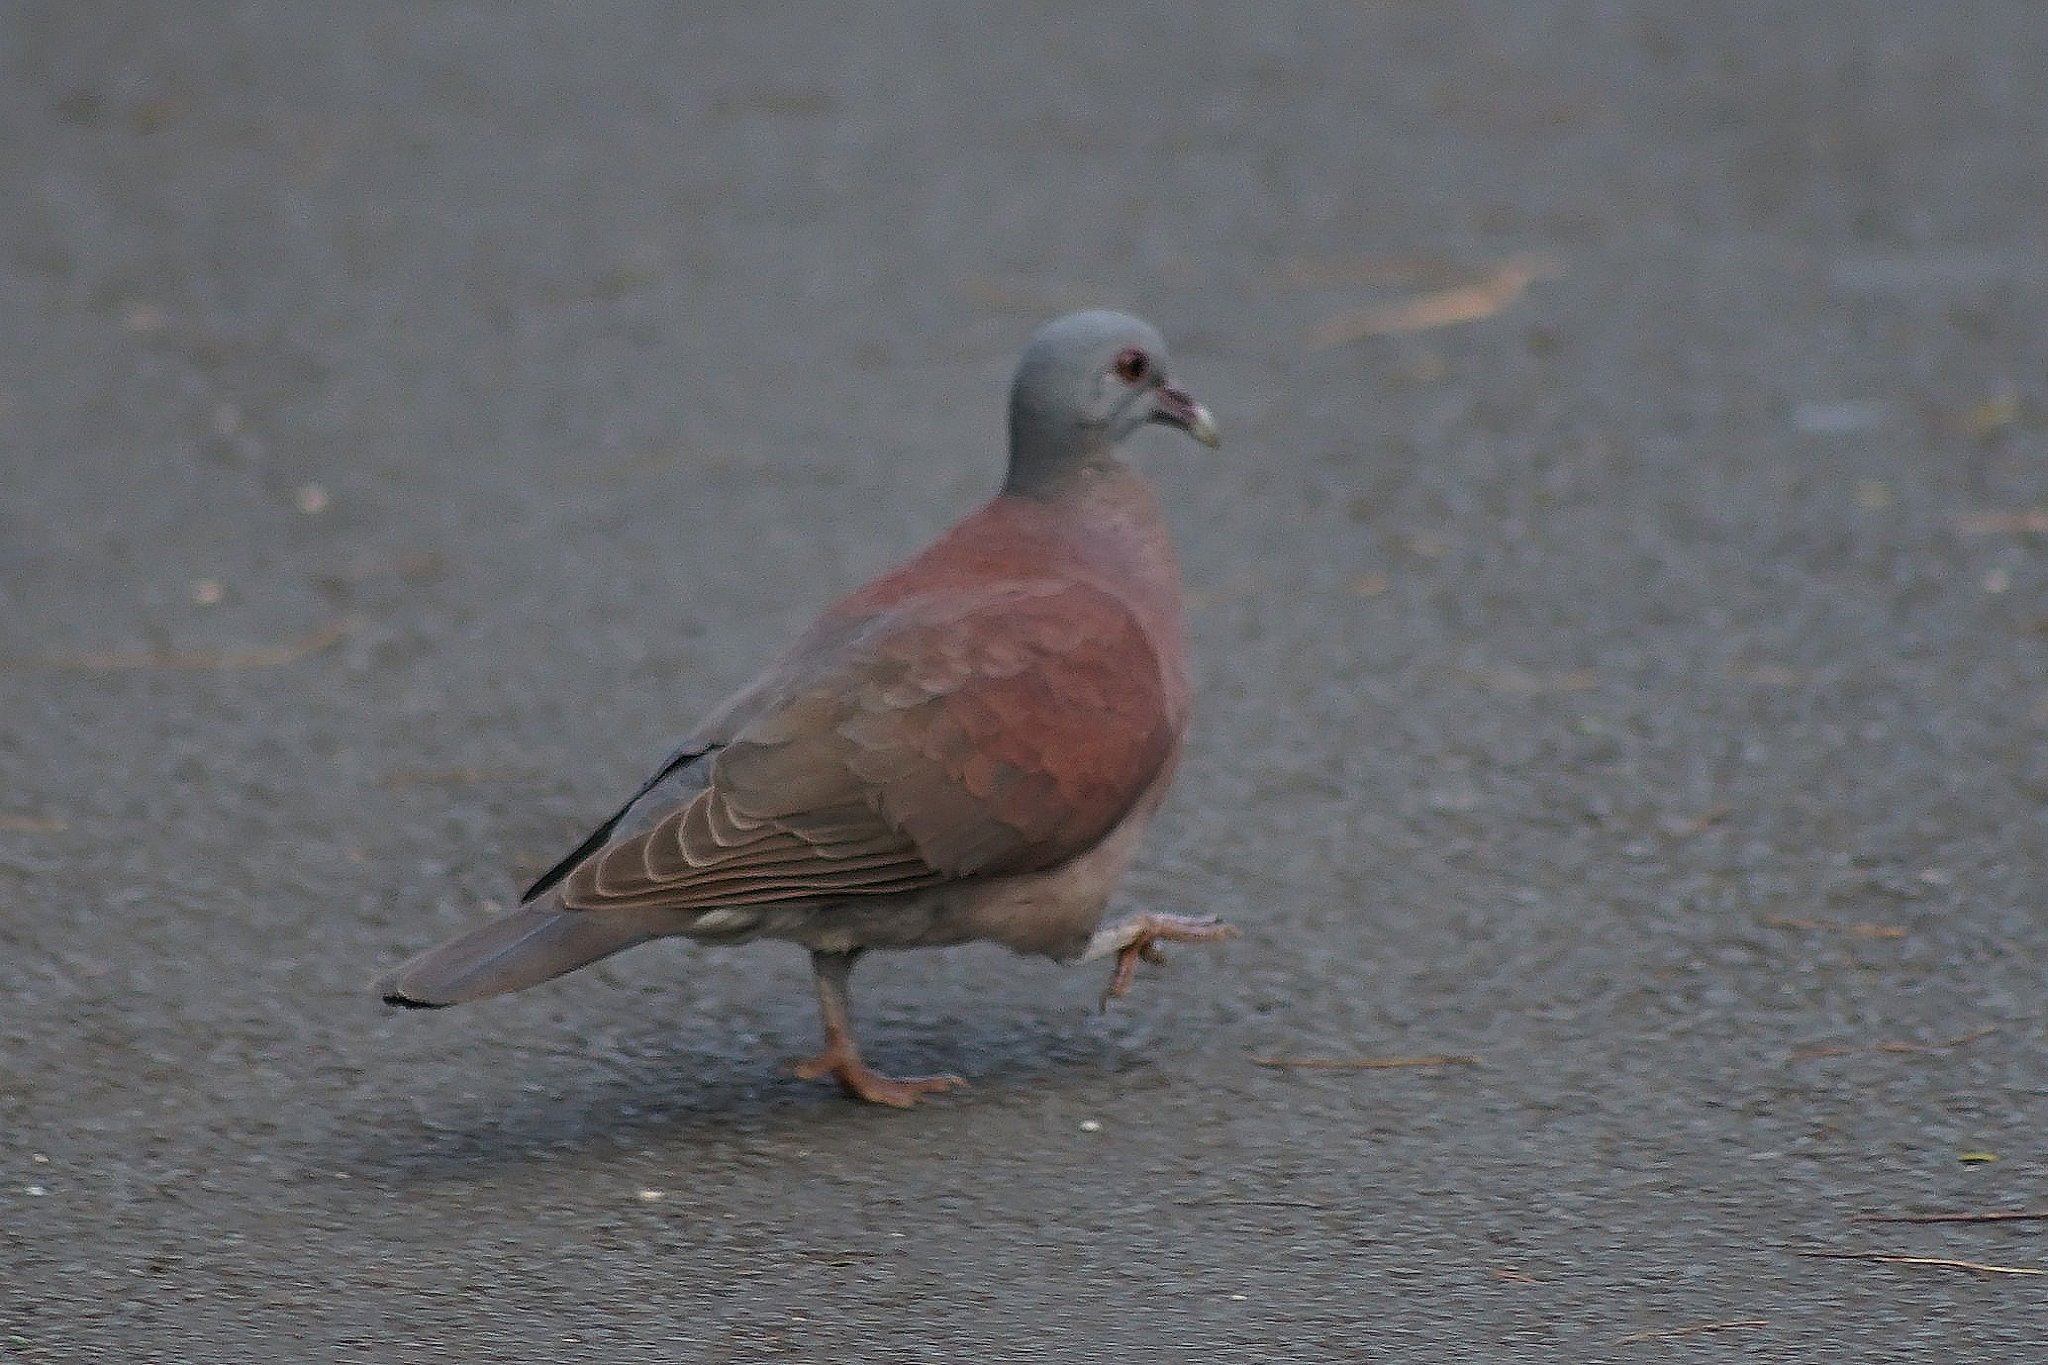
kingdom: Animalia
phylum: Chordata
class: Aves
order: Columbiformes
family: Columbidae
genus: Nesoenas
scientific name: Nesoenas picturatus
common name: Malagasy turtle dove
